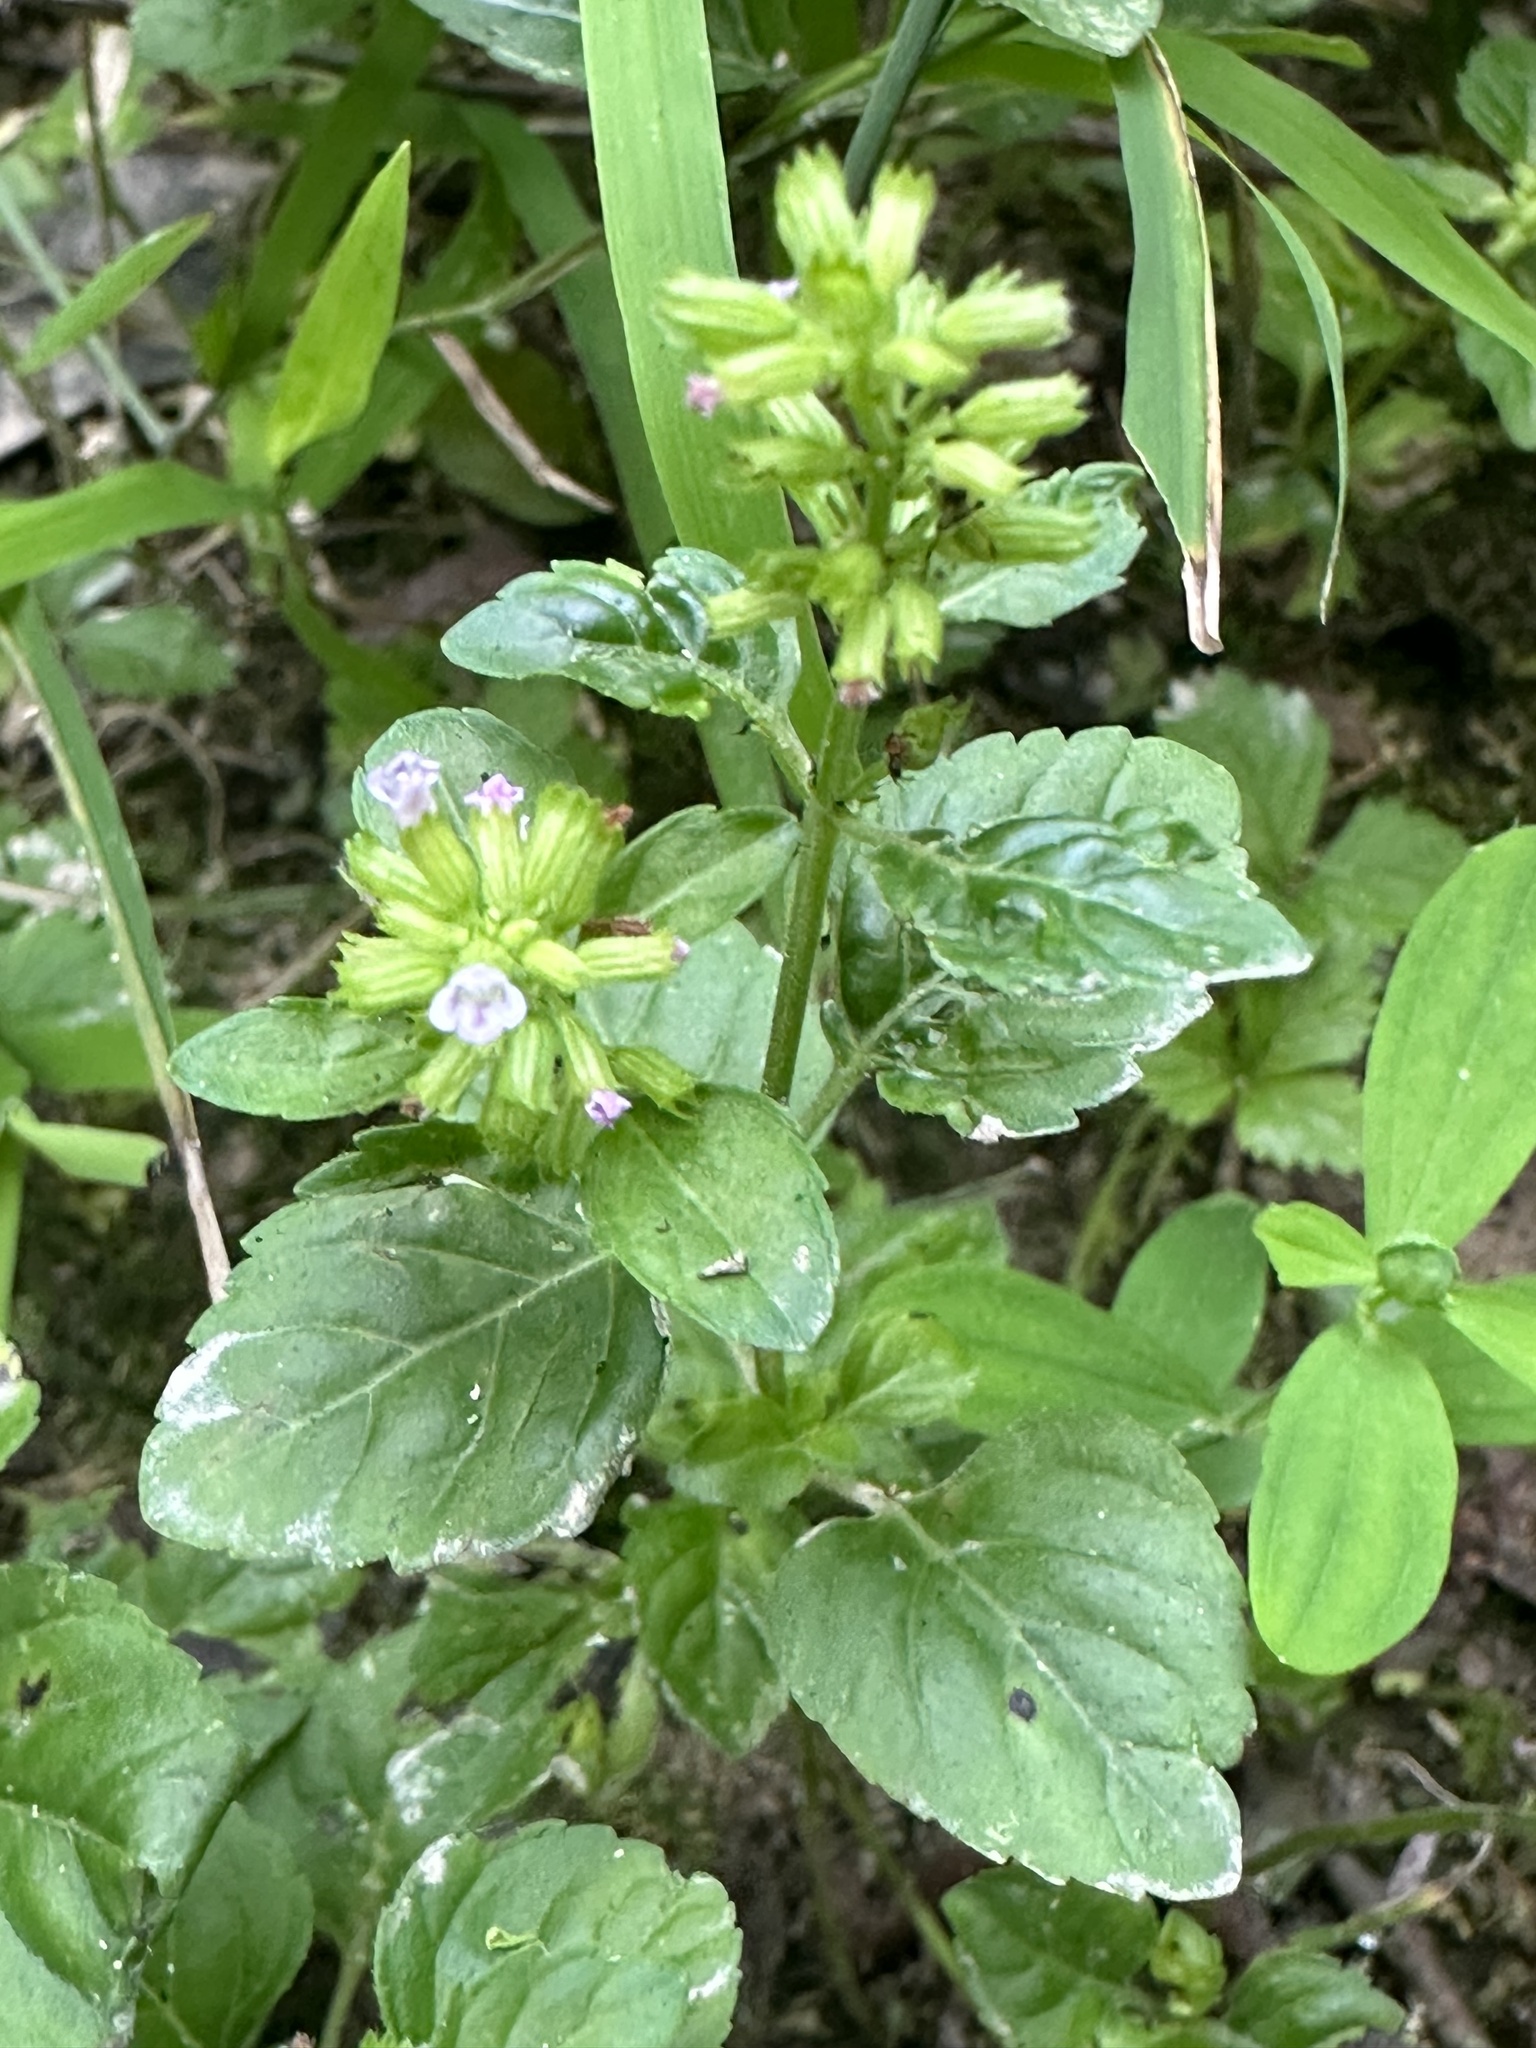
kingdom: Plantae
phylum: Tracheophyta
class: Magnoliopsida
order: Lamiales
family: Lamiaceae
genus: Clinopodium
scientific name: Clinopodium gracile
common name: Slender wild basil
